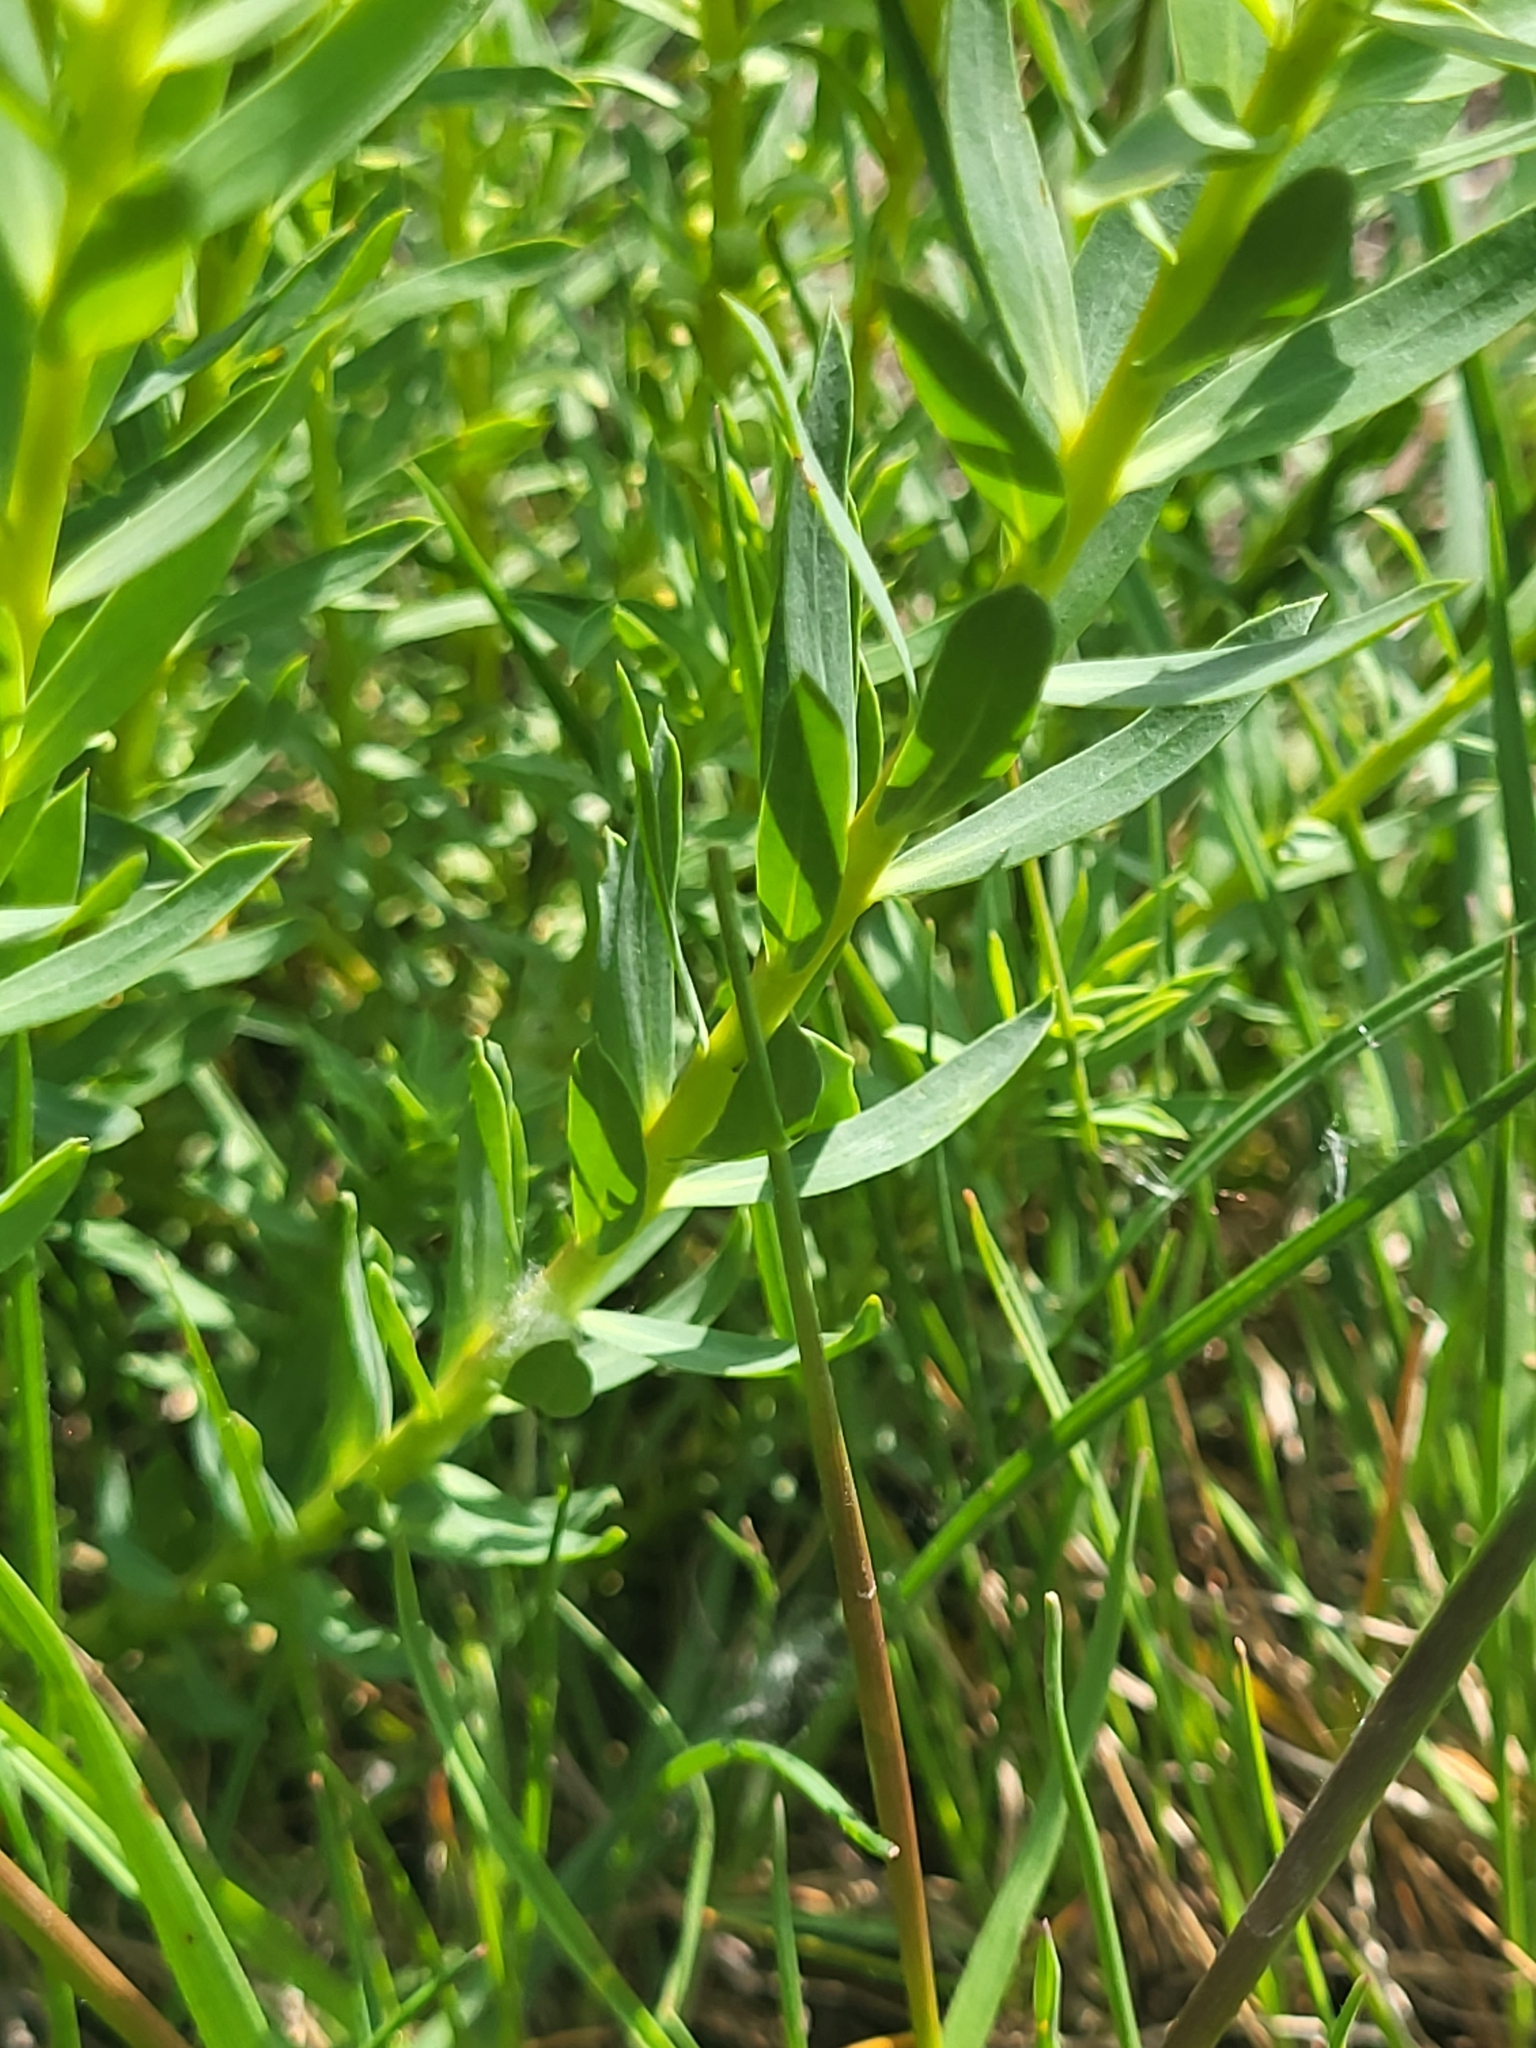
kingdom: Plantae
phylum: Tracheophyta
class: Magnoliopsida
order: Malpighiales
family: Euphorbiaceae
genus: Euphorbia
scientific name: Euphorbia seguieriana
